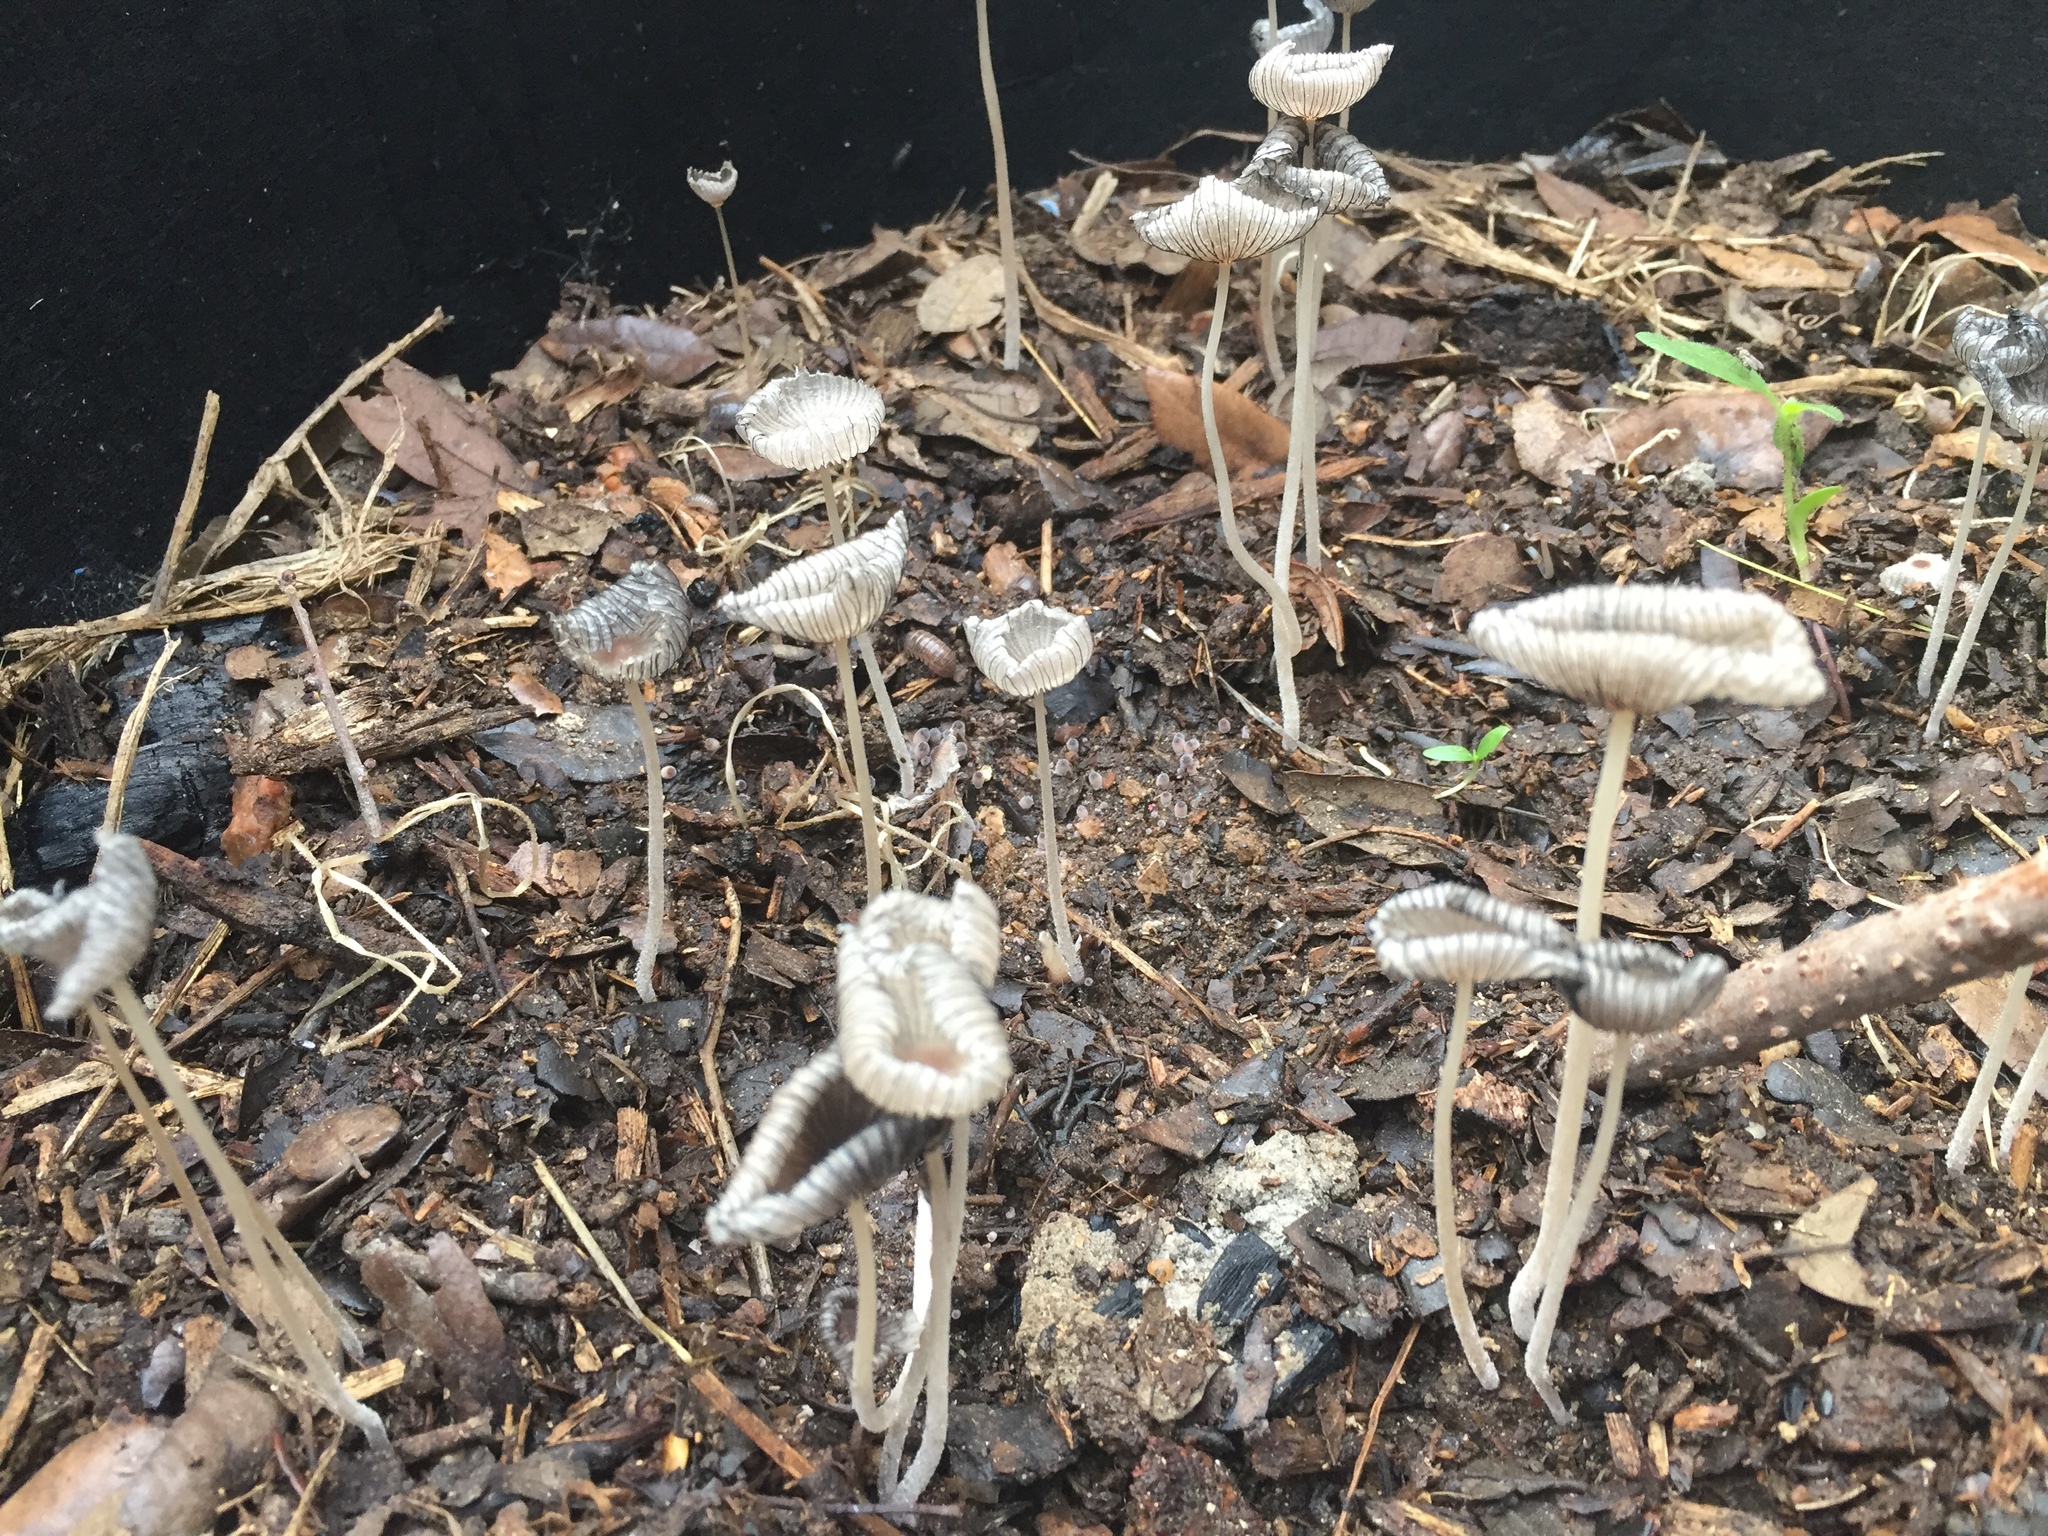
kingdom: Fungi
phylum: Basidiomycota
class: Agaricomycetes
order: Agaricales
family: Psathyrellaceae
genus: Parasola
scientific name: Parasola plicatilis
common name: Pleated inkcap
